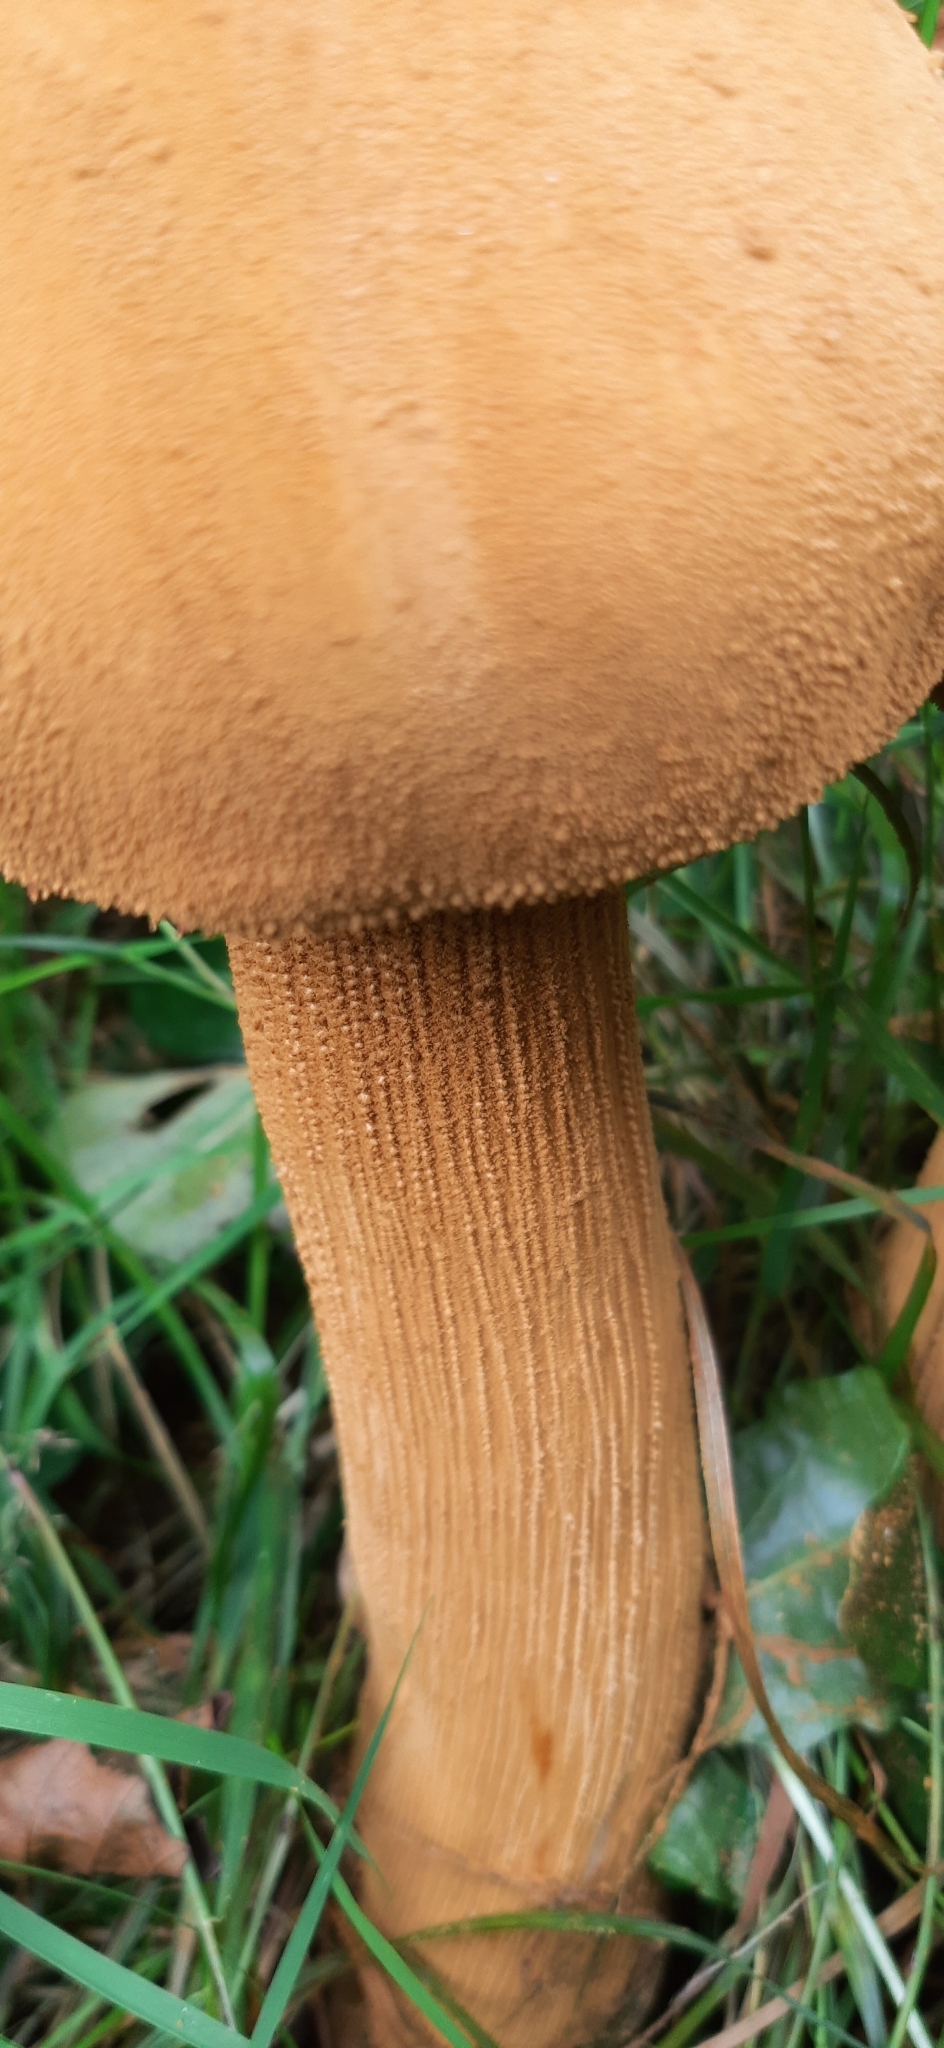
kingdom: Fungi
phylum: Basidiomycota
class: Agaricomycetes
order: Agaricales
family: Tricholomataceae
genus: Phaeolepiota
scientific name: Phaeolepiota aurea
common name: Golden bootleg
